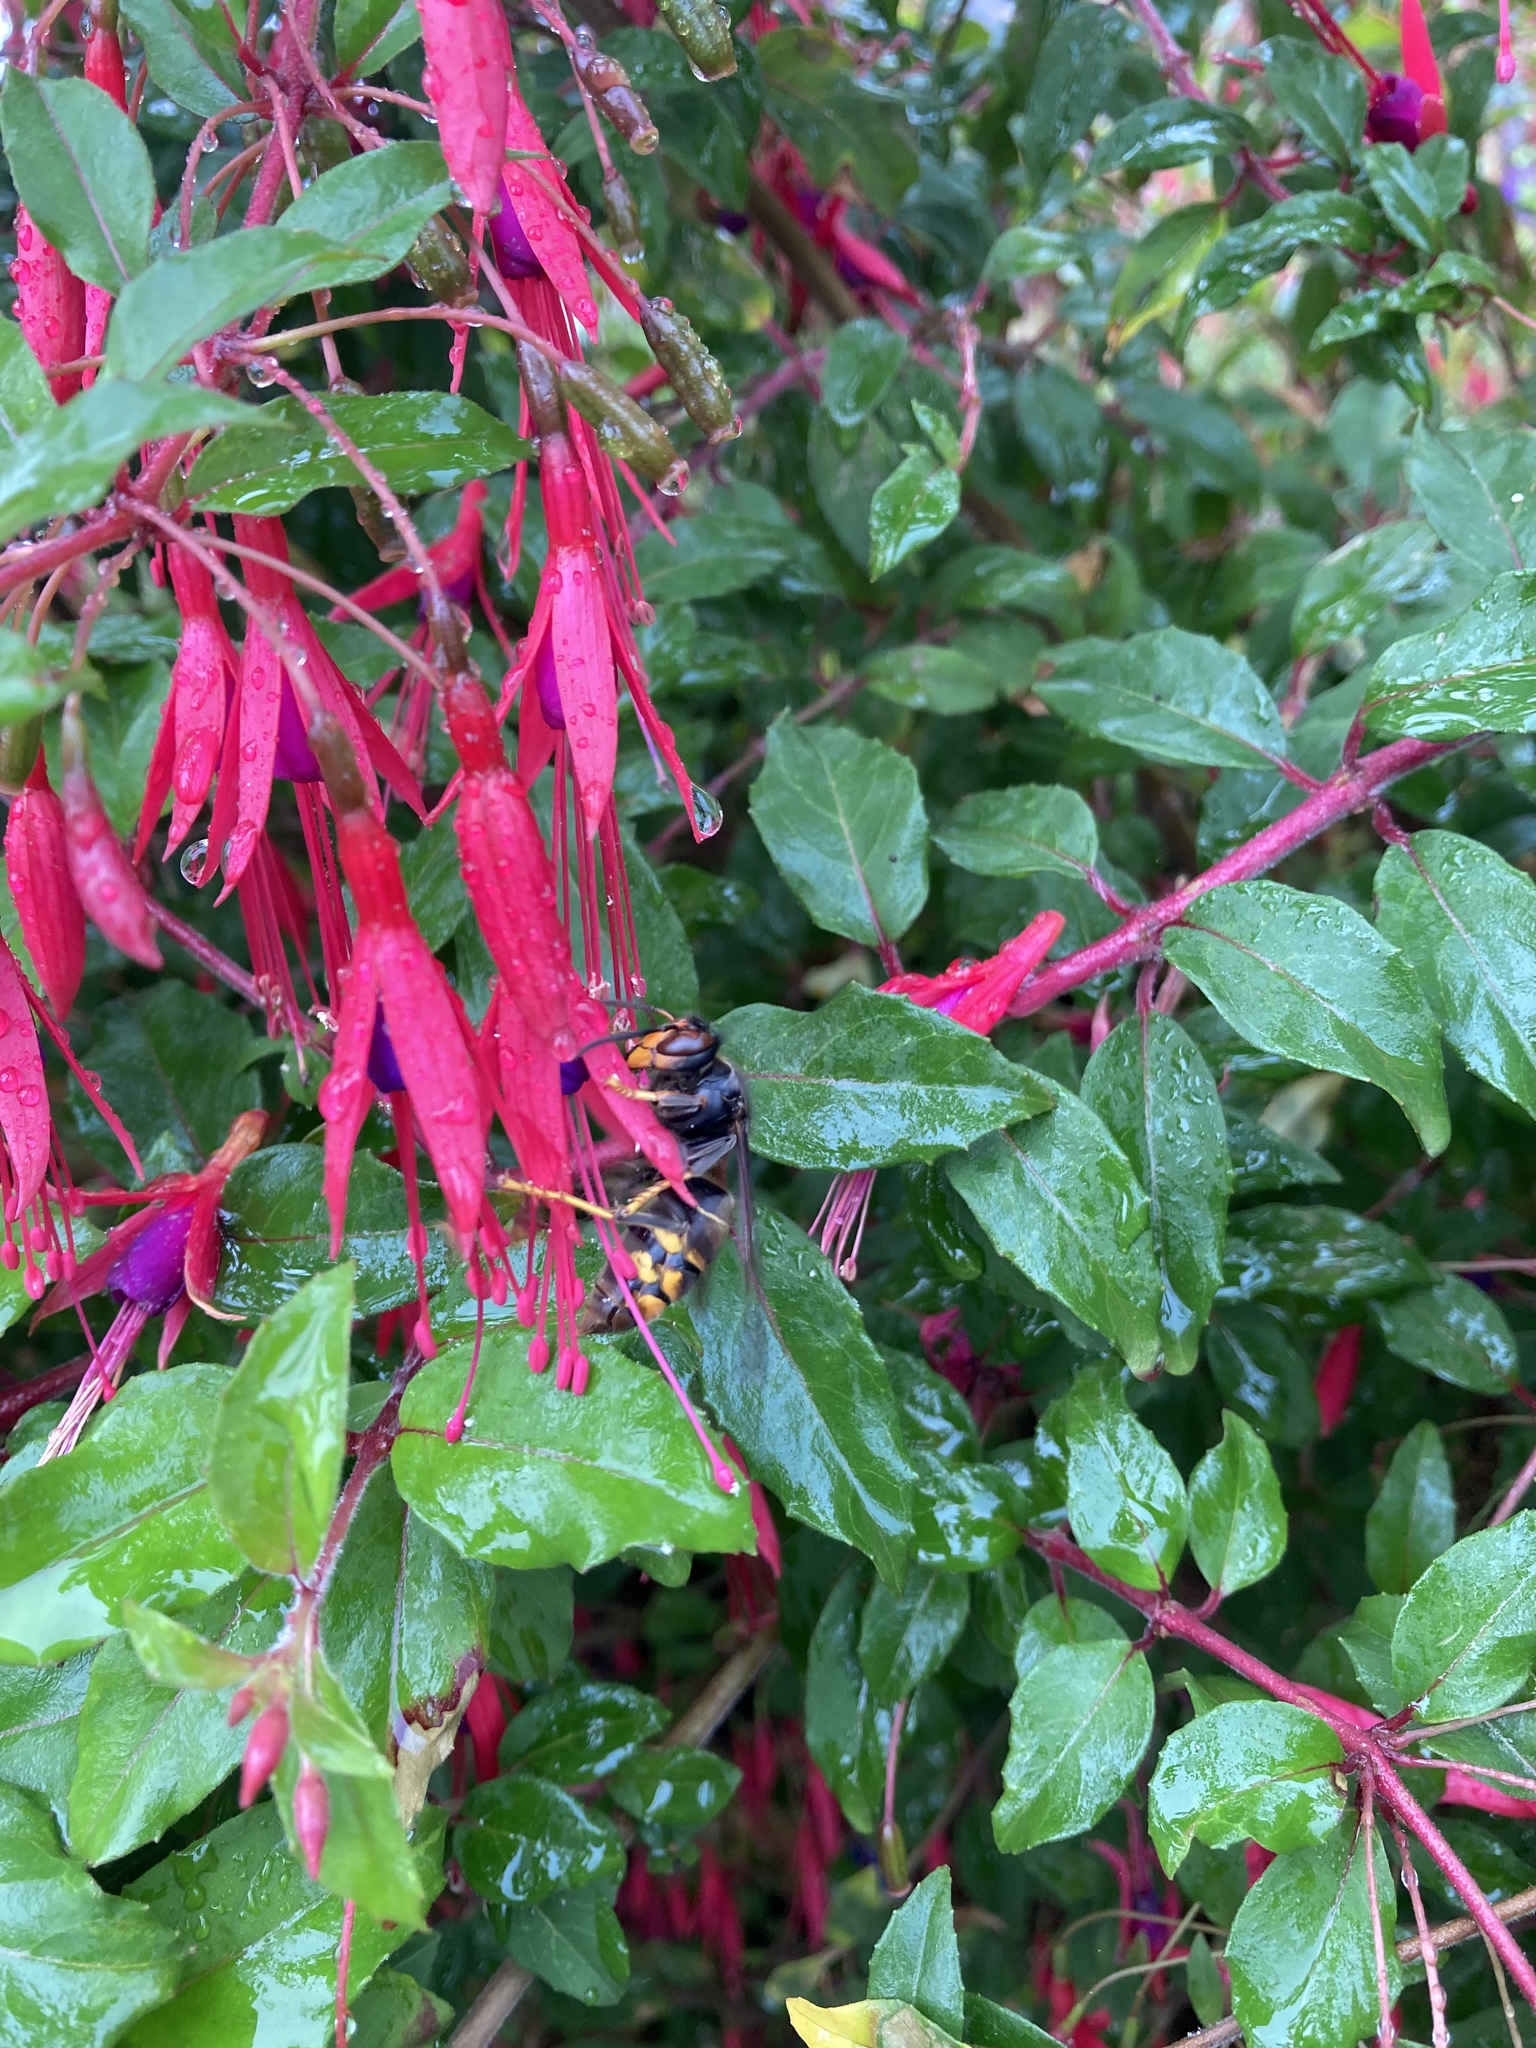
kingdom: Animalia
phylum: Arthropoda
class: Insecta
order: Hymenoptera
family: Vespidae
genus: Vespa
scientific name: Vespa velutina
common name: Asian hornet
